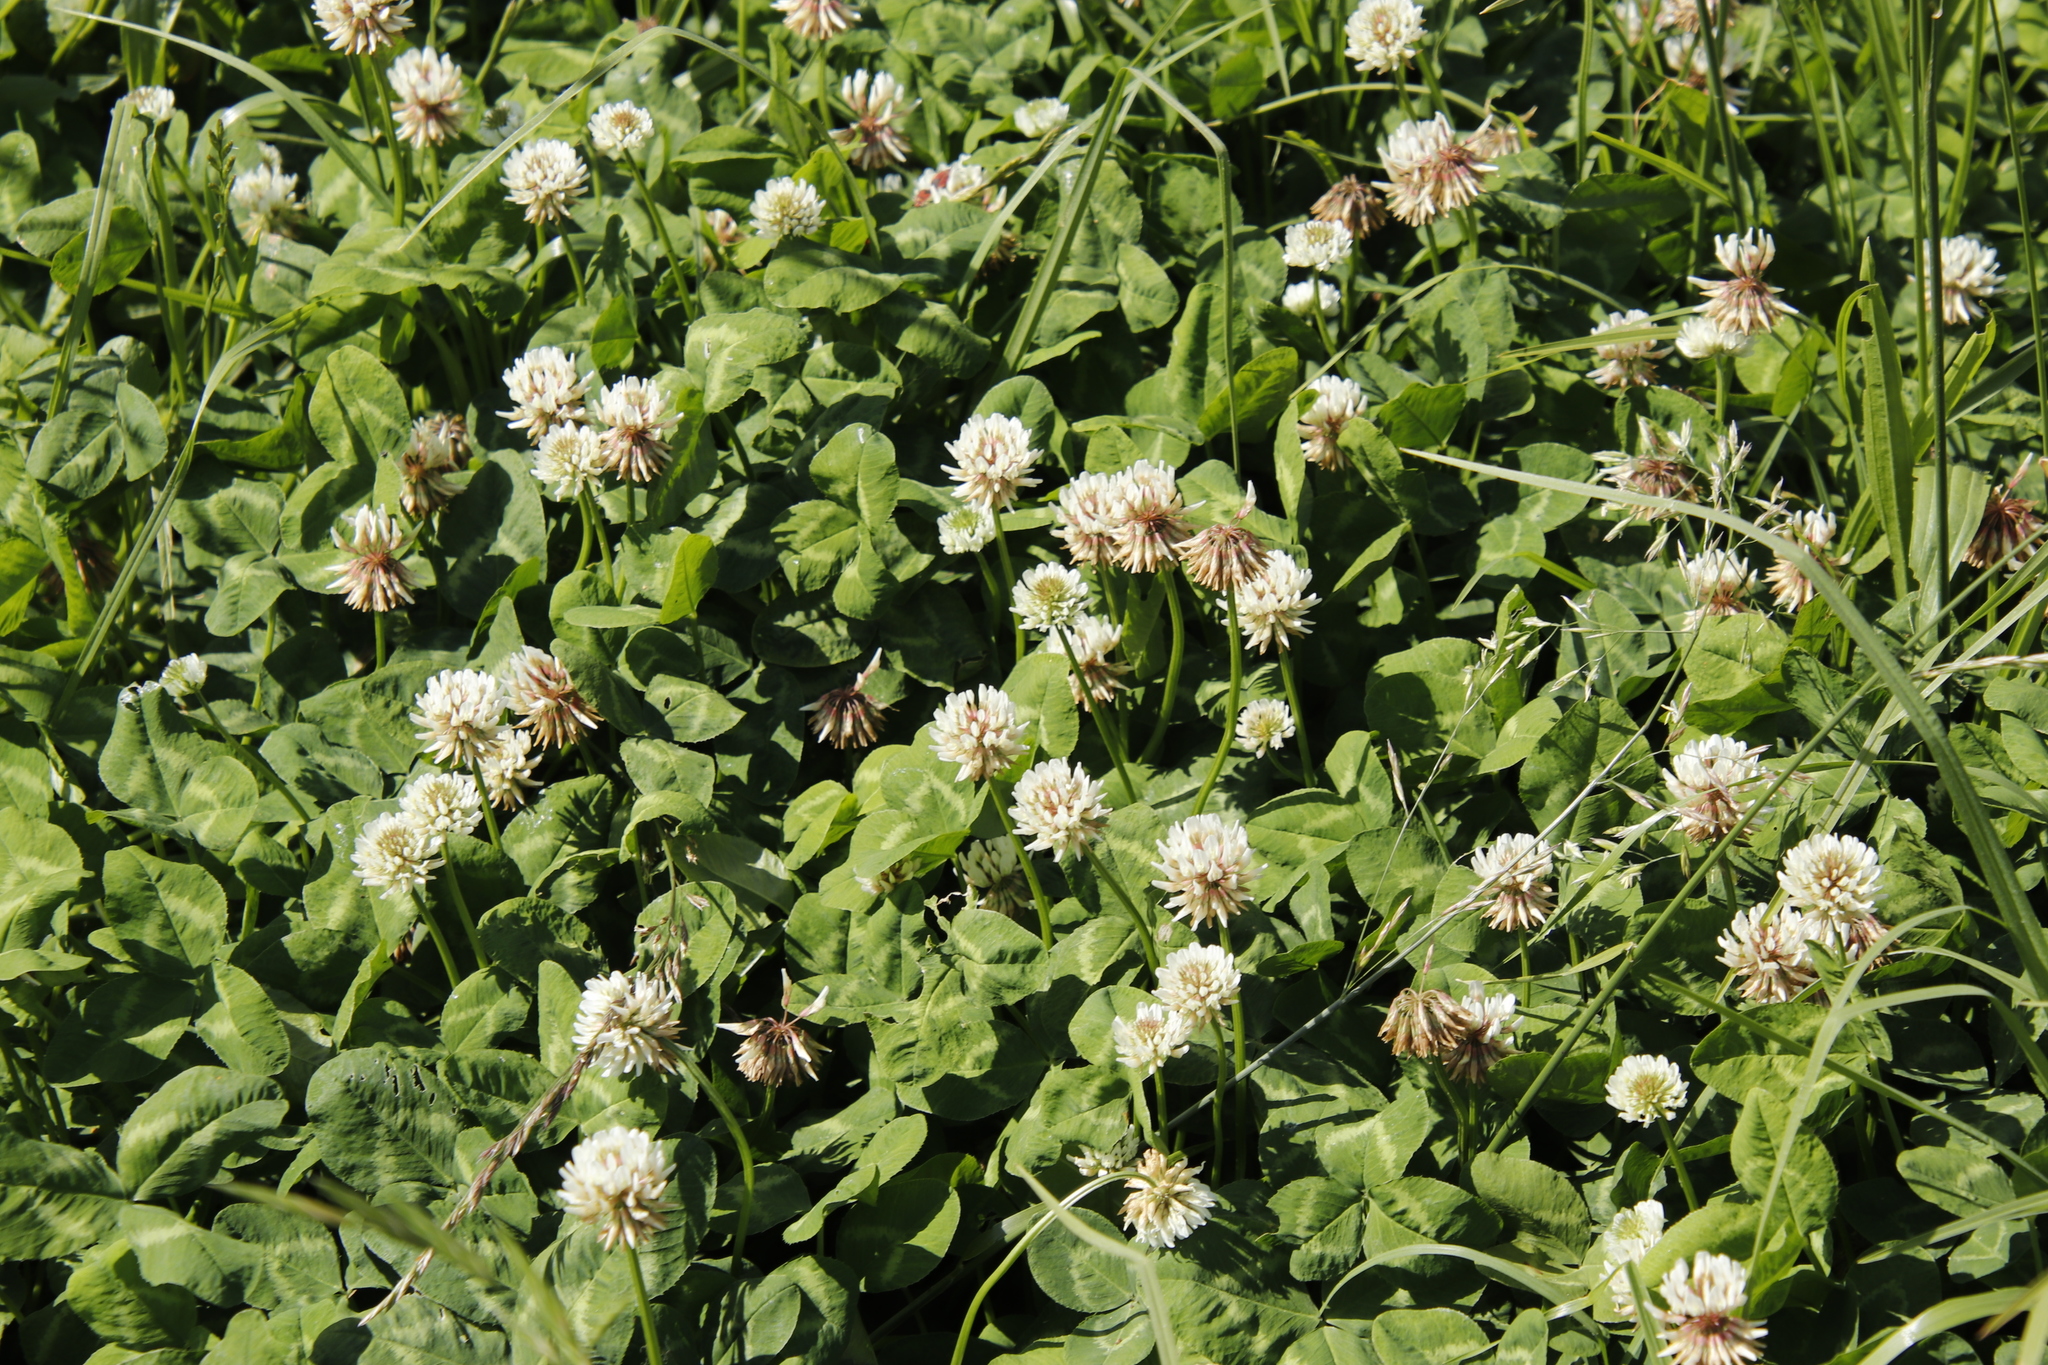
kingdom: Plantae
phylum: Tracheophyta
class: Magnoliopsida
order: Fabales
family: Fabaceae
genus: Trifolium
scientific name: Trifolium repens
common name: White clover
